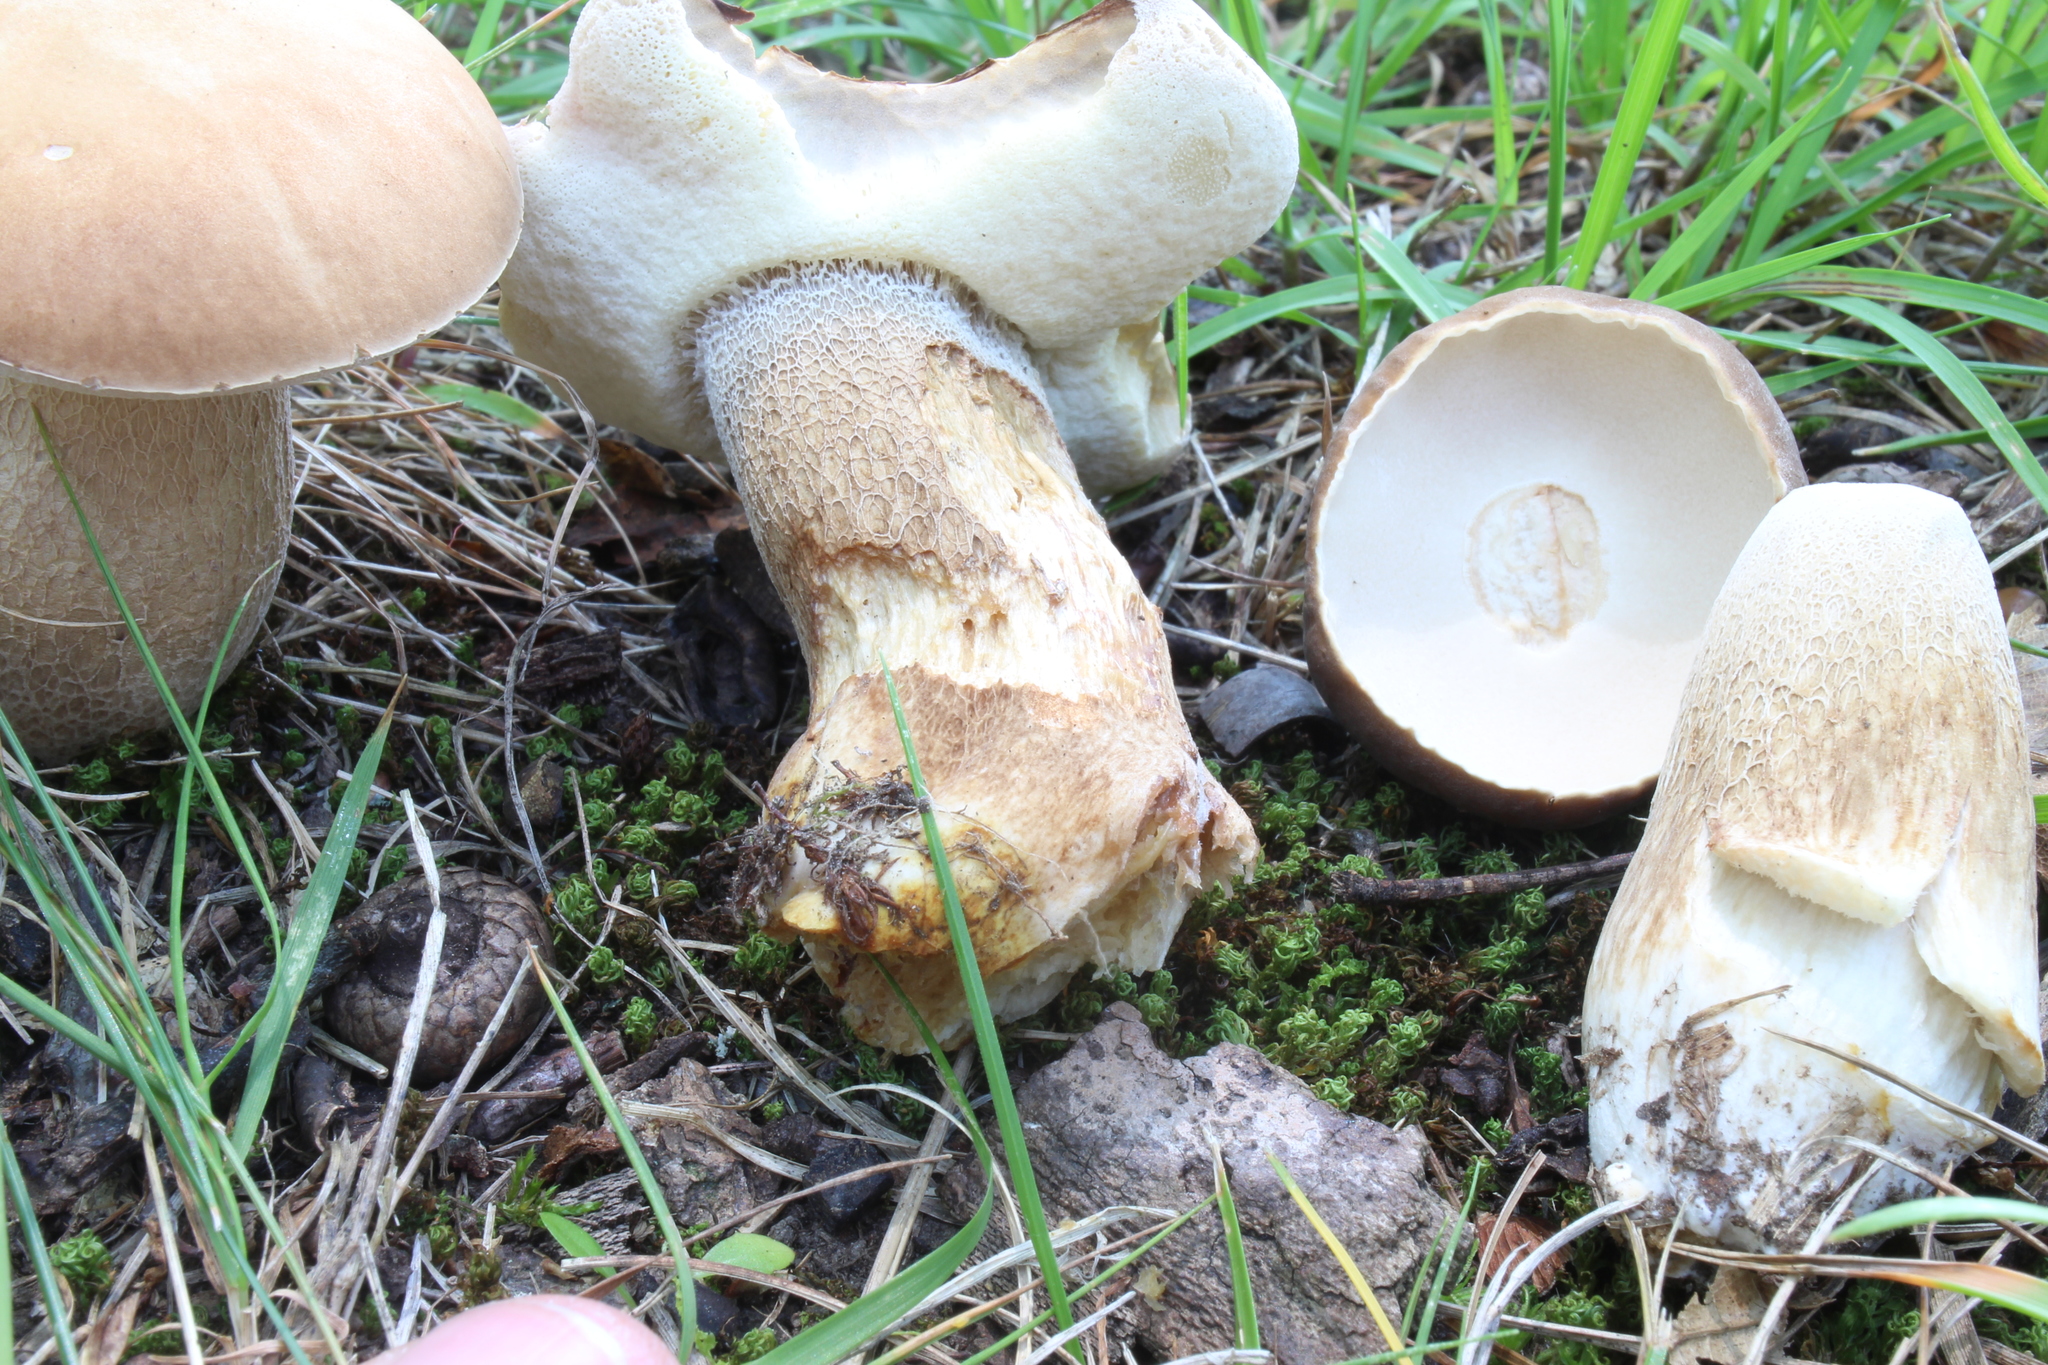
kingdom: Fungi
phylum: Basidiomycota
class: Agaricomycetes
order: Boletales
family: Boletaceae
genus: Boletus
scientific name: Boletus variipes
